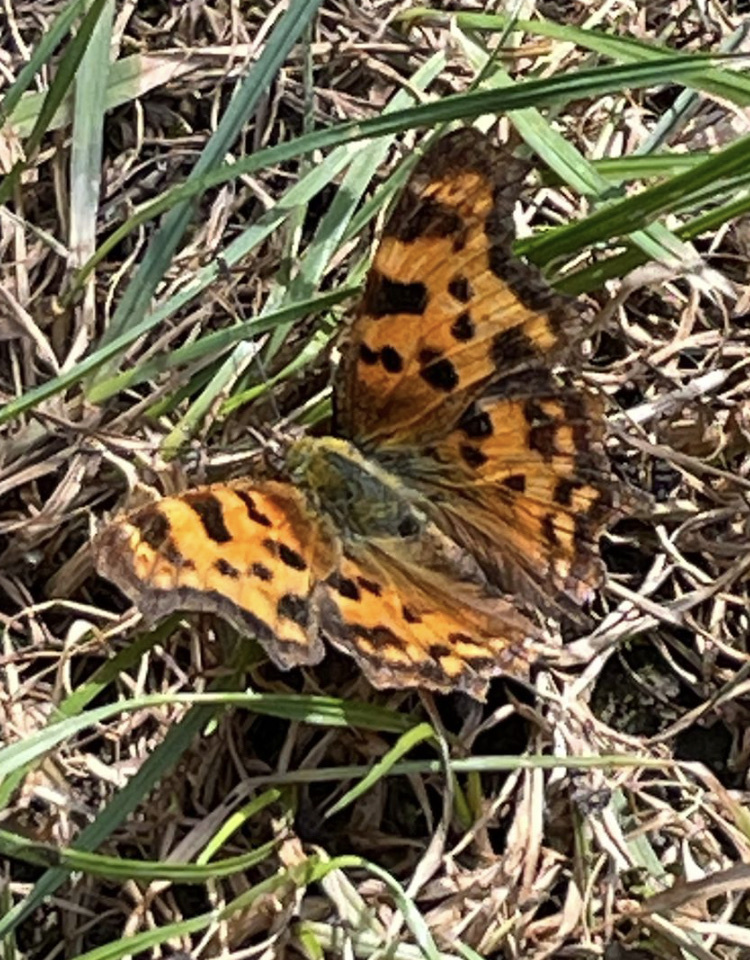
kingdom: Animalia
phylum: Arthropoda
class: Insecta
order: Lepidoptera
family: Nymphalidae
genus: Polygonia
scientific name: Polygonia c-album
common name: Comma
